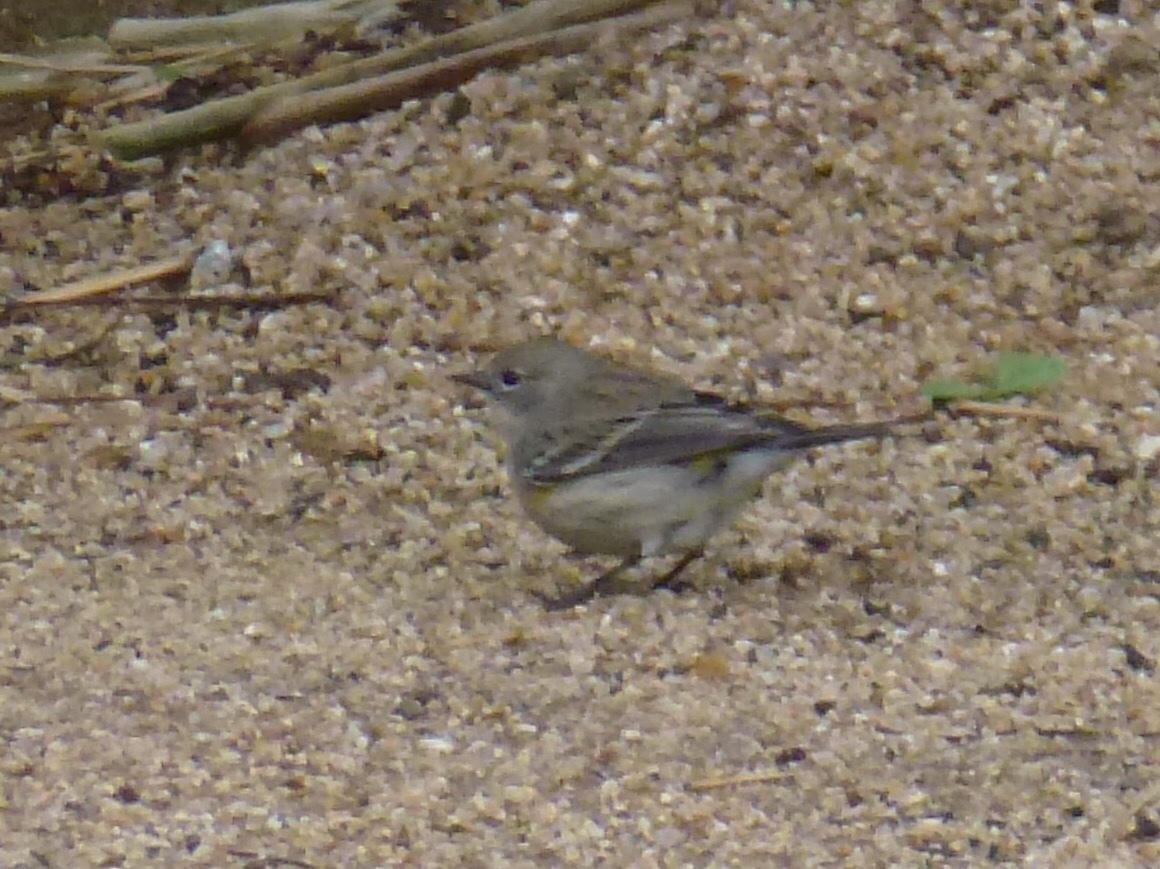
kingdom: Animalia
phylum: Chordata
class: Aves
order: Passeriformes
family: Parulidae
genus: Setophaga
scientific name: Setophaga coronata
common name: Myrtle warbler
